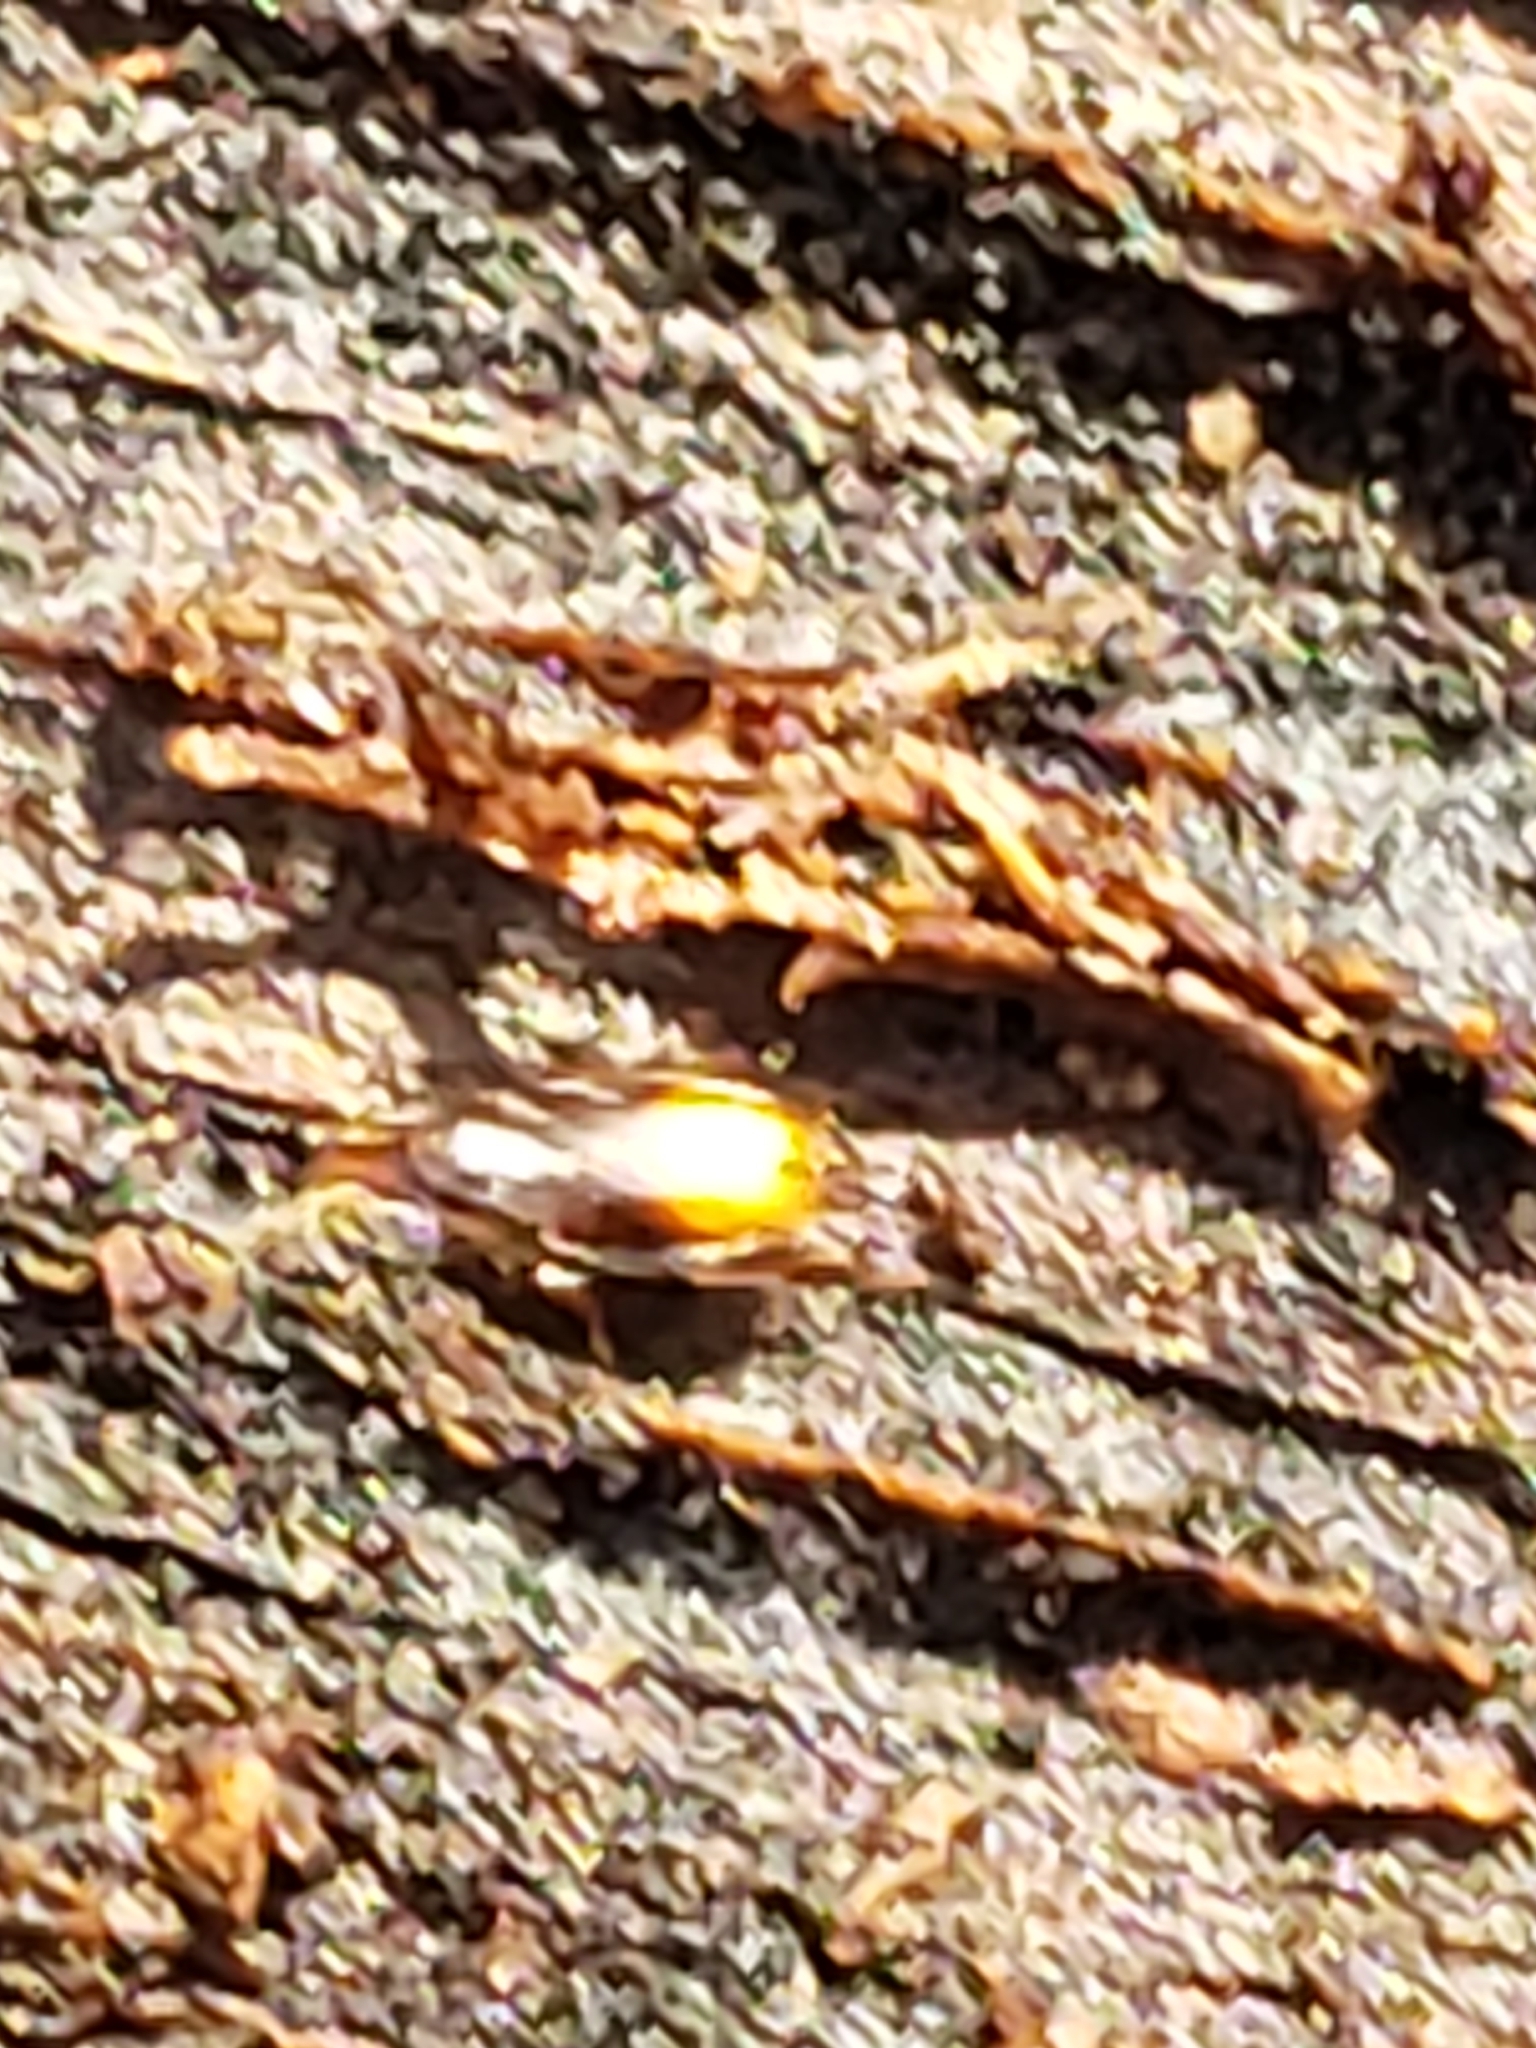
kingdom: Animalia
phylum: Arthropoda
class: Insecta
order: Coleoptera
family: Carabidae
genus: Mioptachys
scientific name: Mioptachys flavicauda
